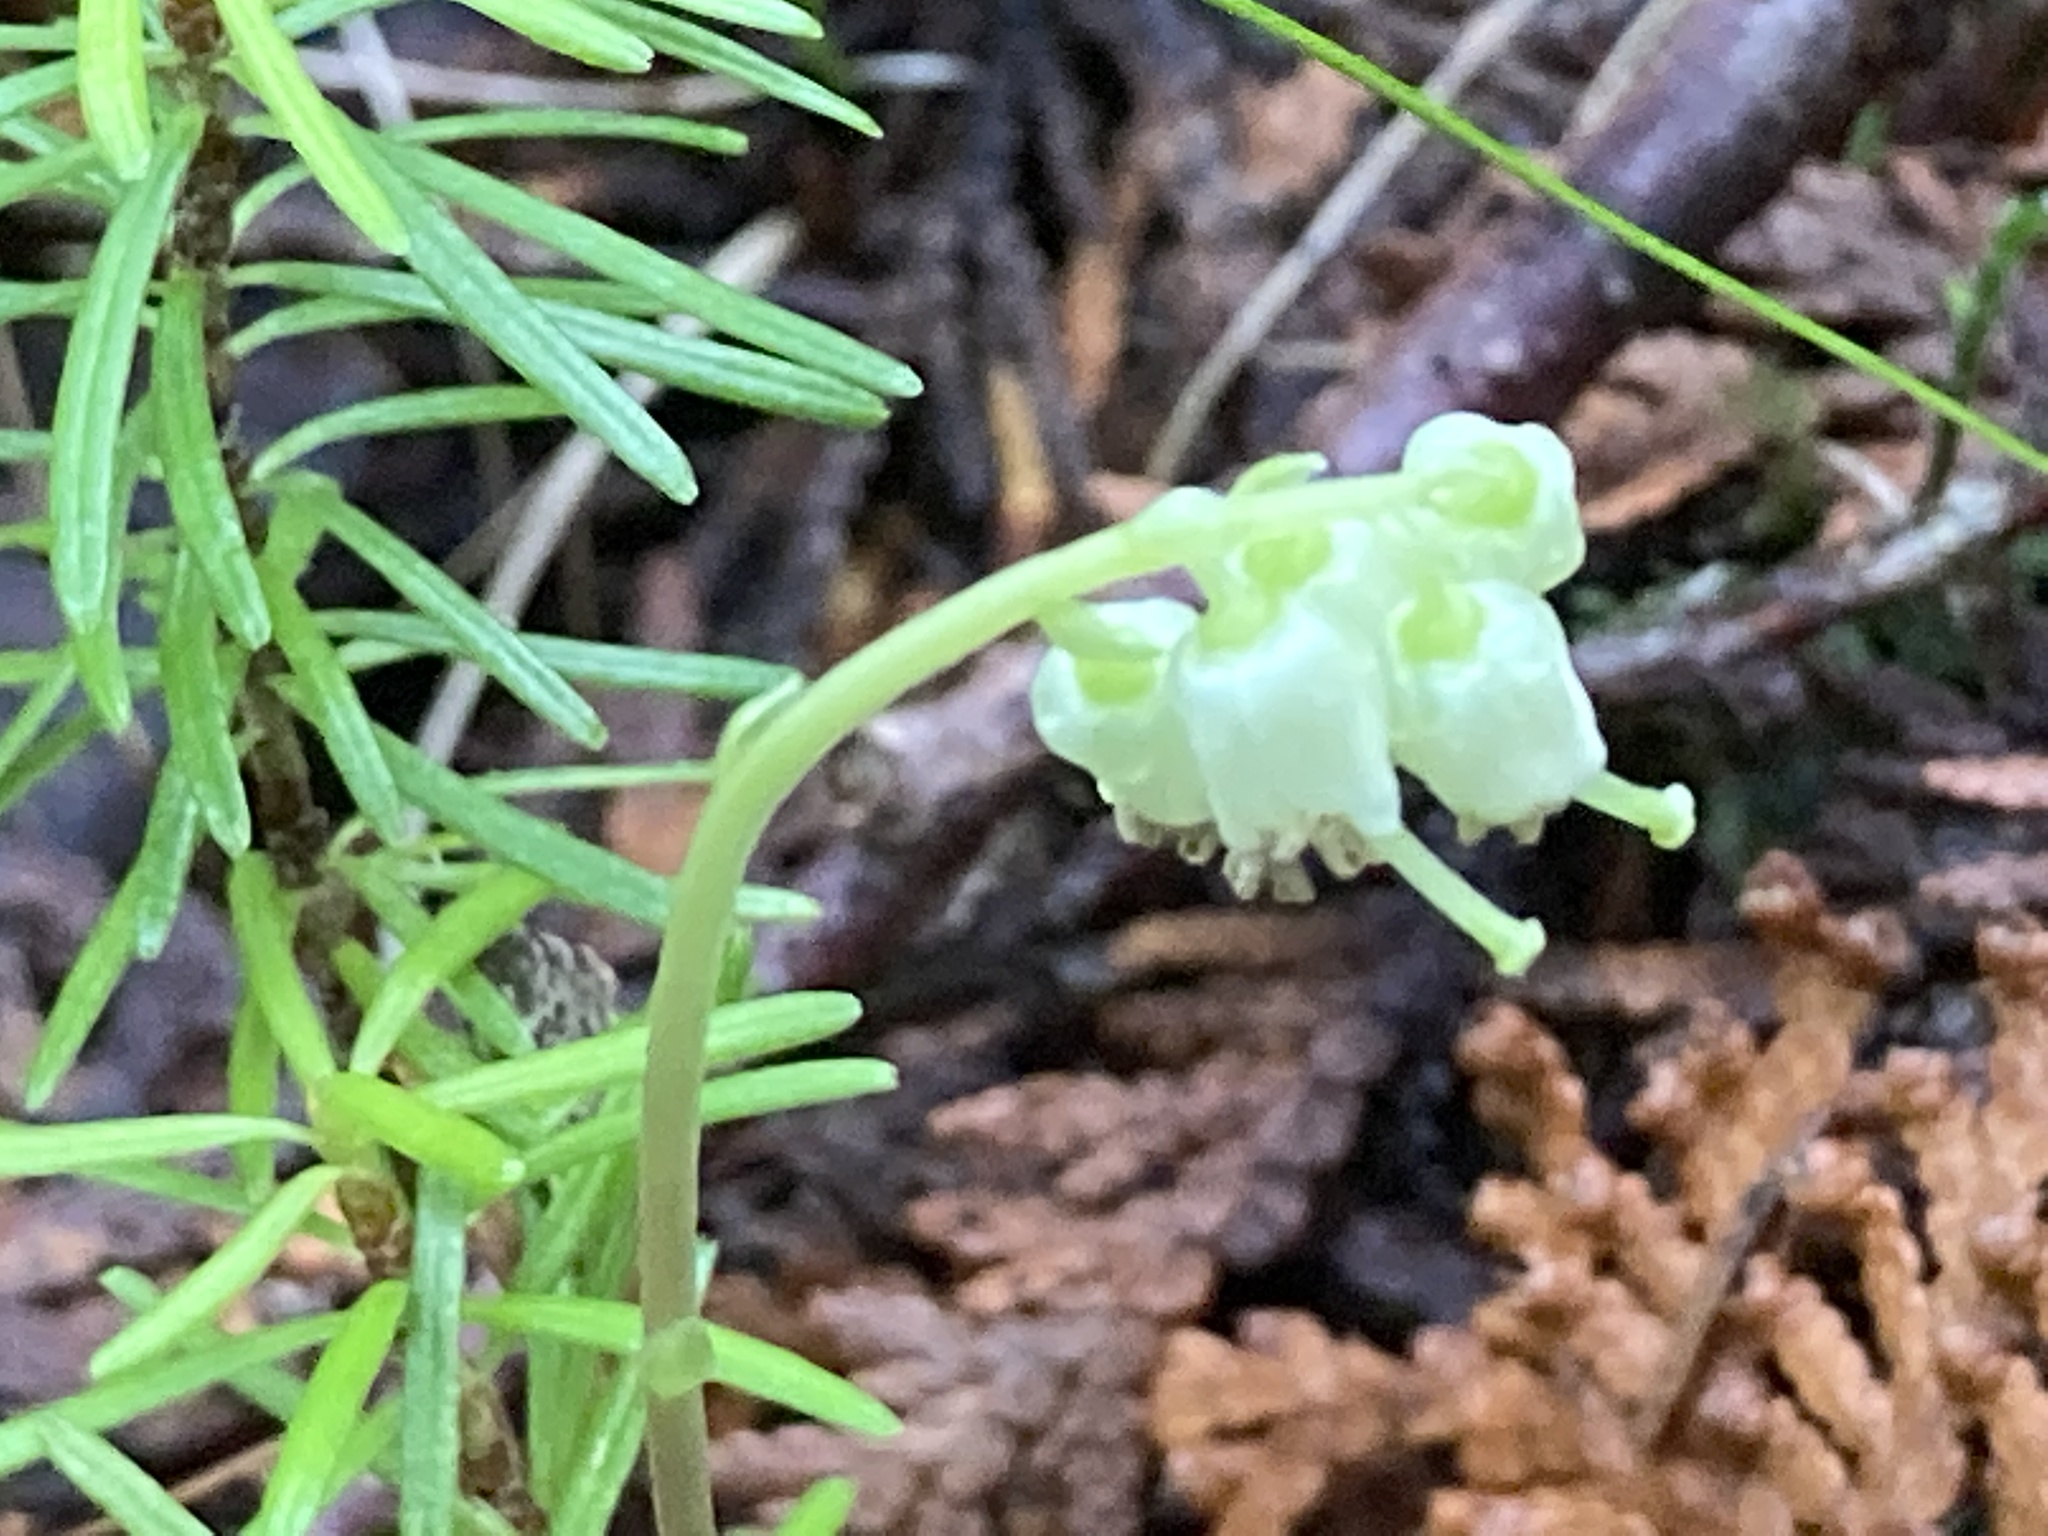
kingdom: Plantae
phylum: Tracheophyta
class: Magnoliopsida
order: Ericales
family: Ericaceae
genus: Orthilia
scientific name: Orthilia secunda
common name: One-sided orthilia
